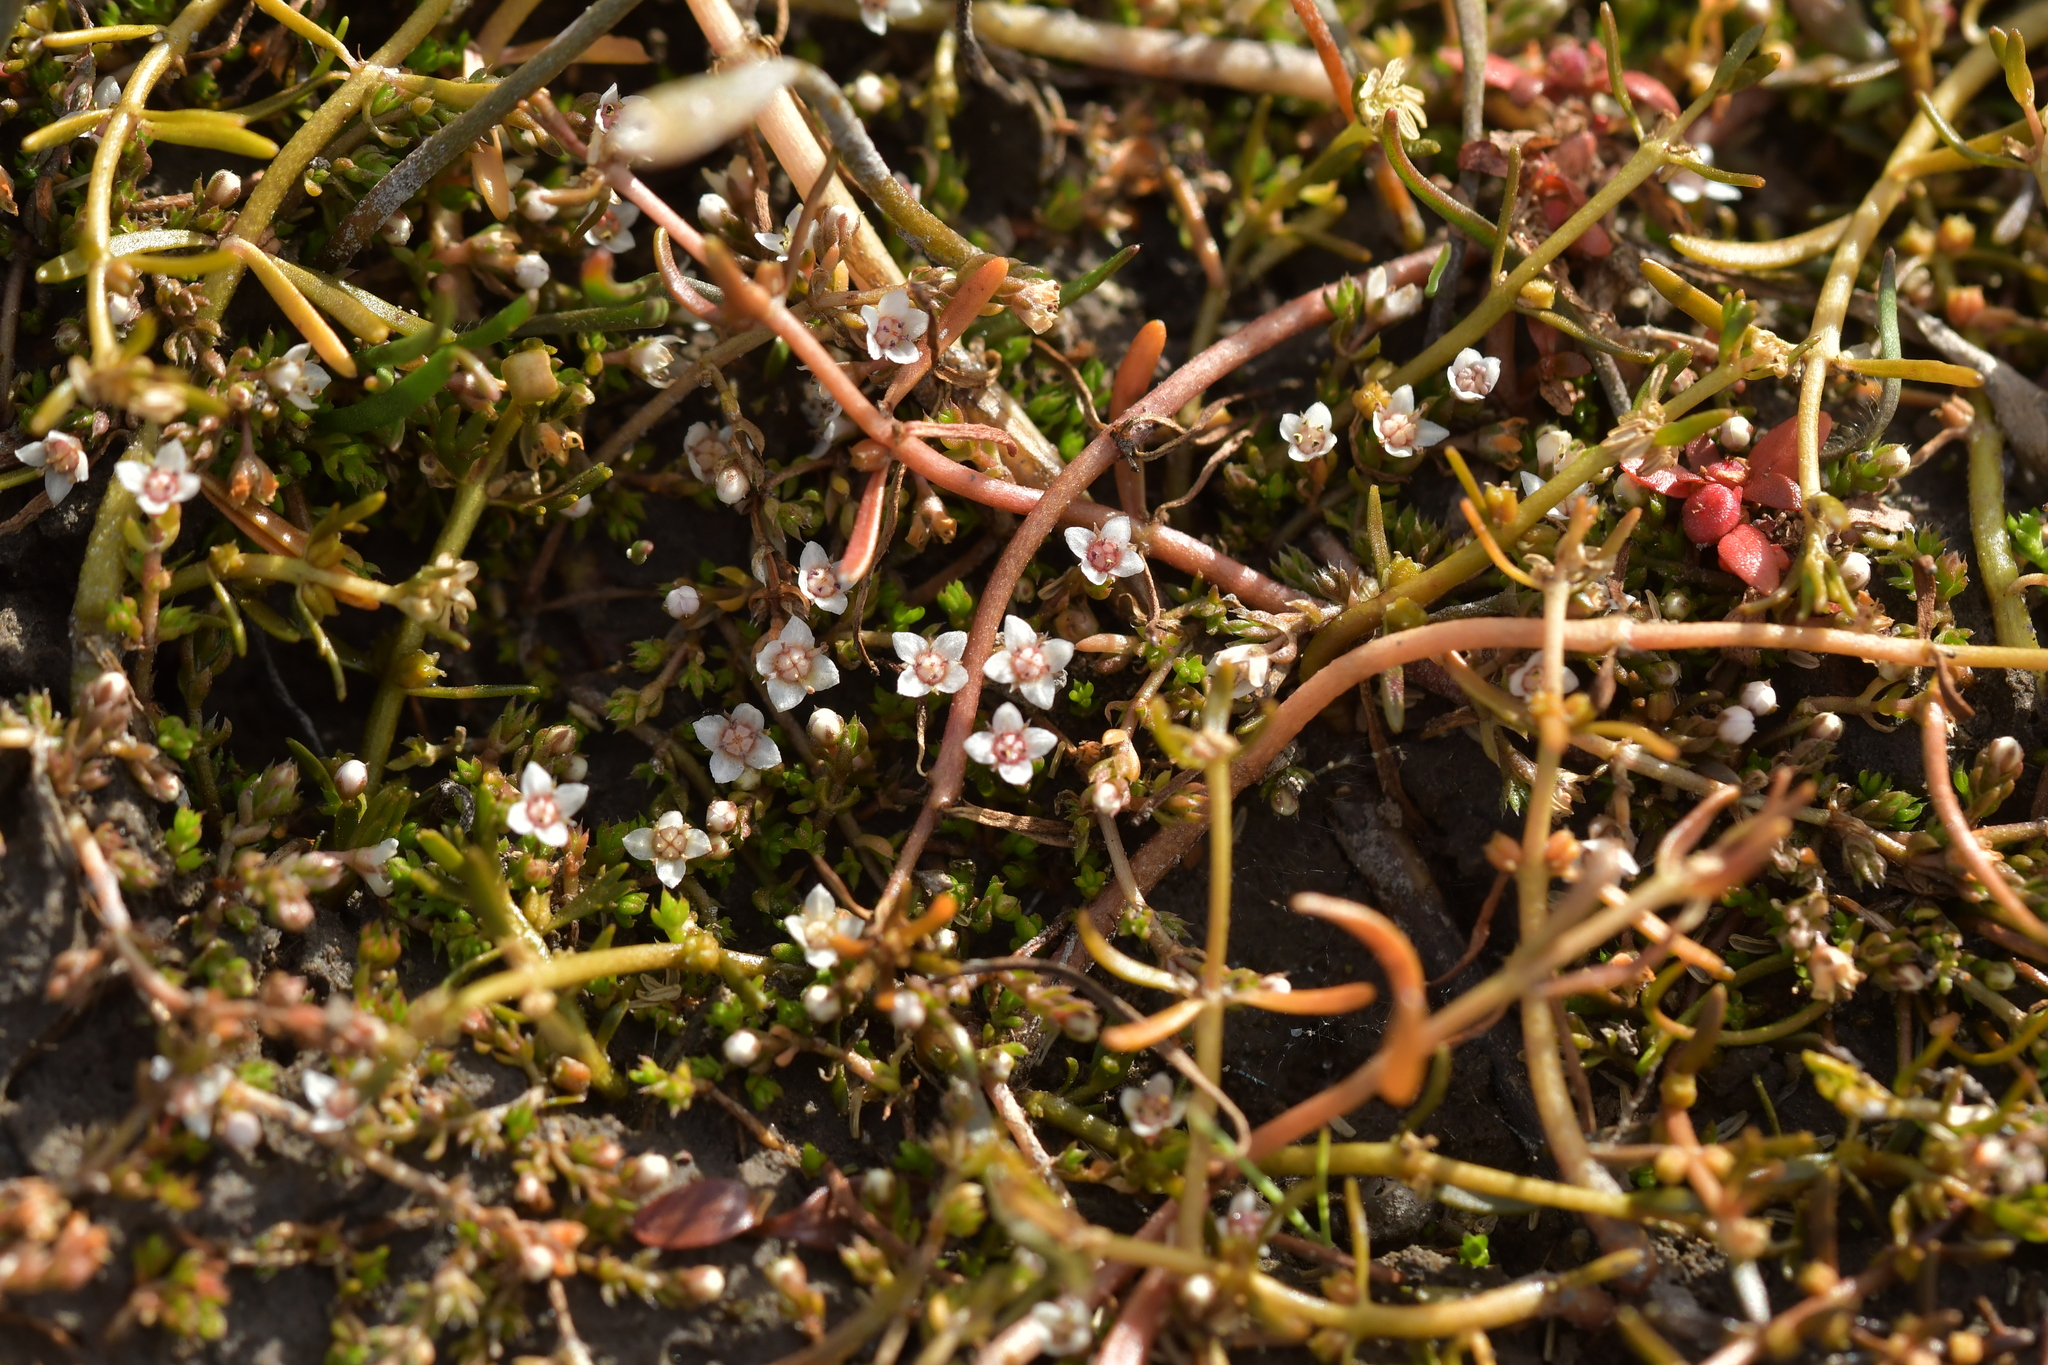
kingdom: Plantae
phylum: Tracheophyta
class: Magnoliopsida
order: Saxifragales
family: Crassulaceae
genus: Crassula
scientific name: Crassula sinclairii
